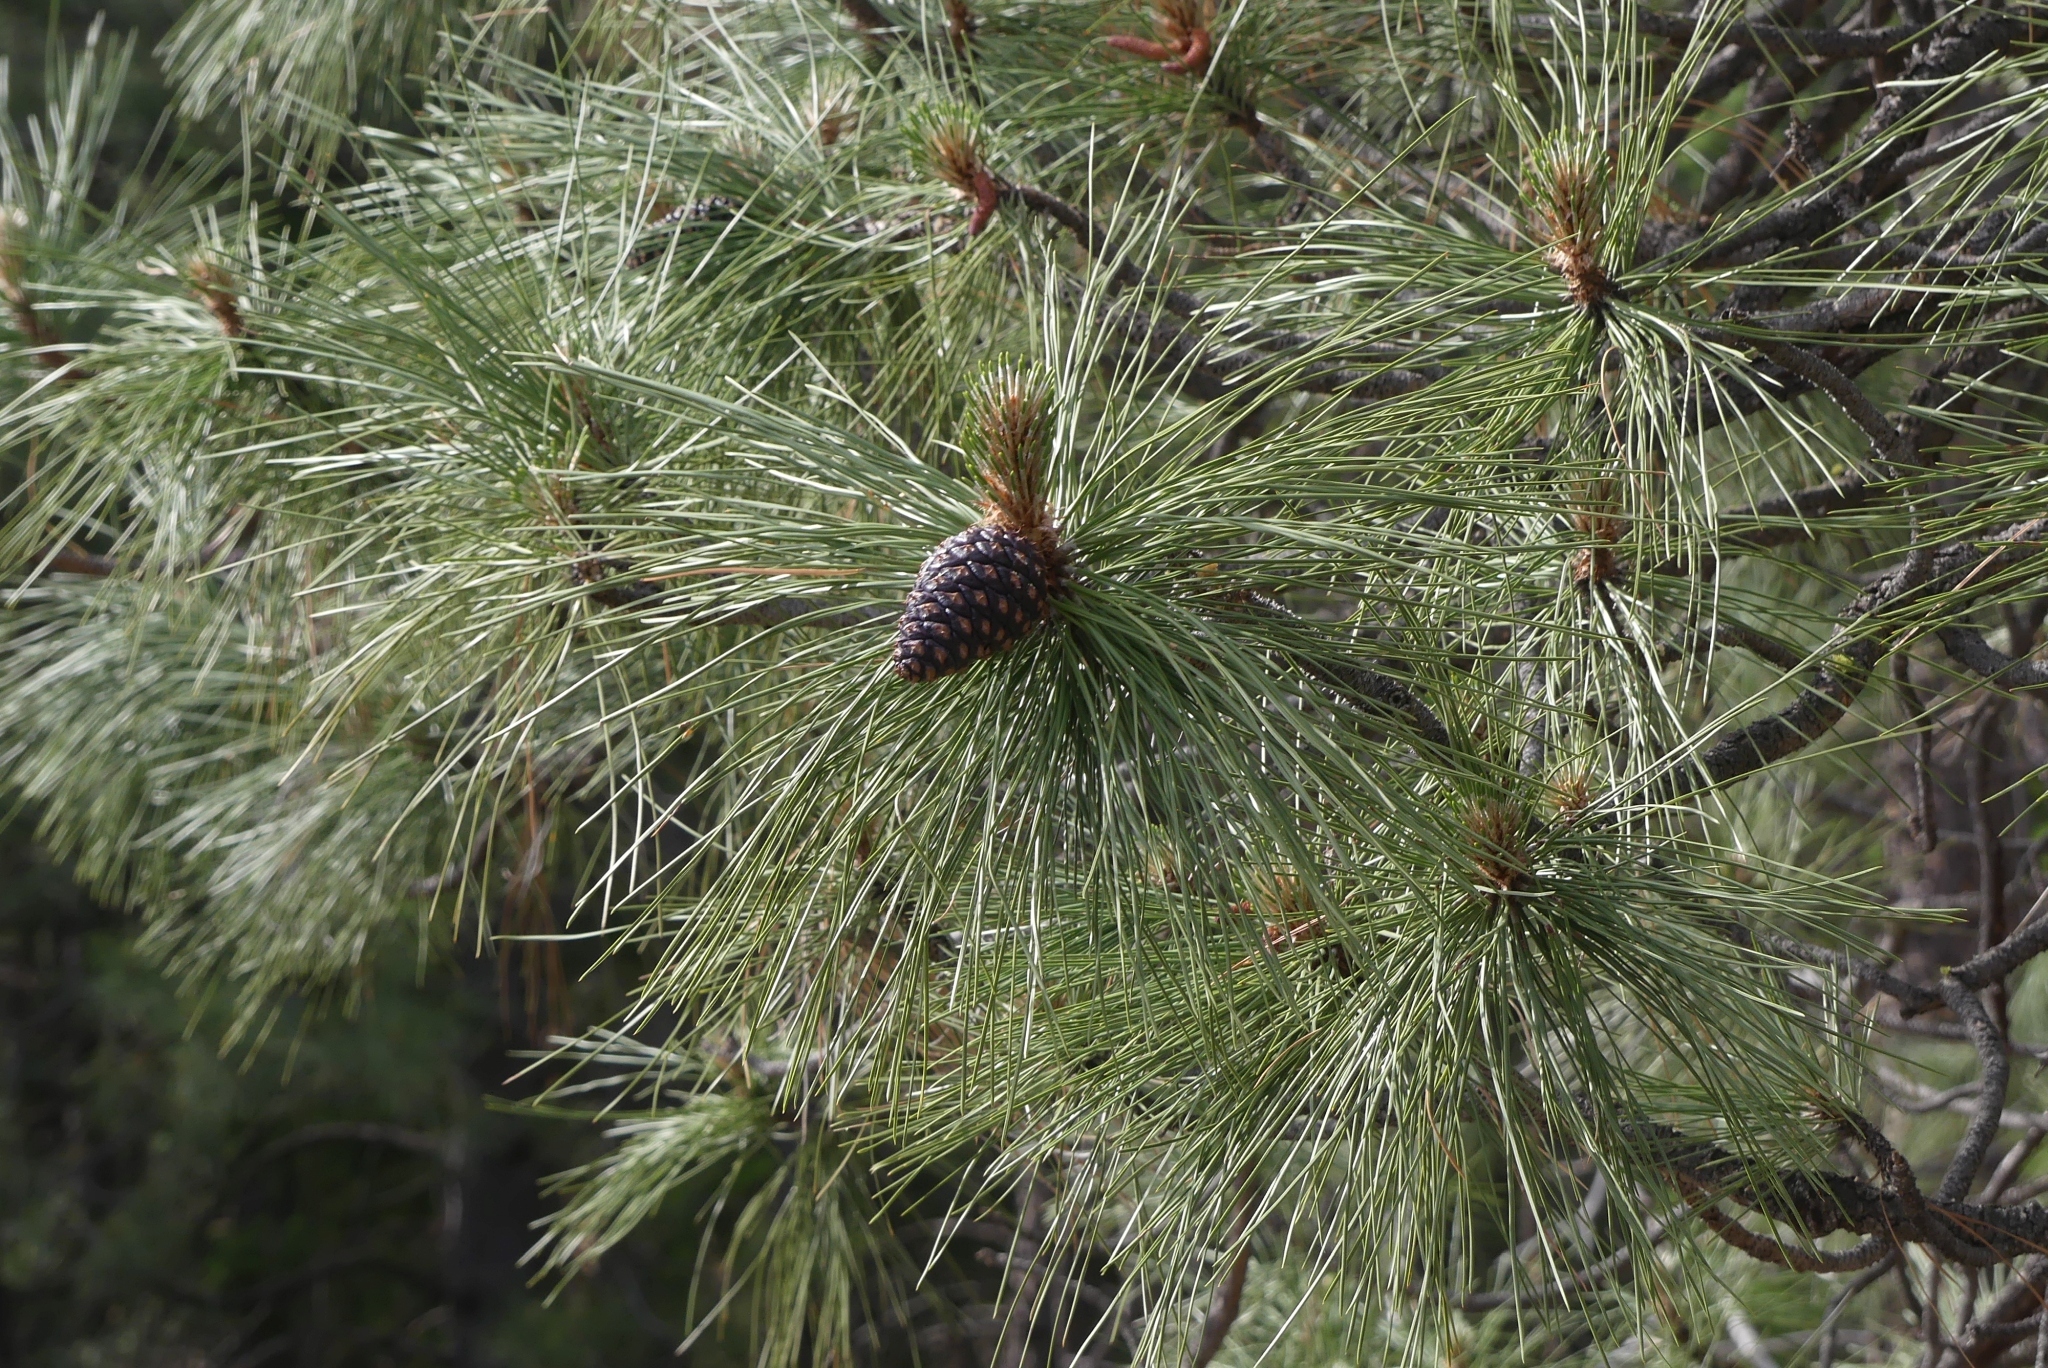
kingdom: Plantae
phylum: Tracheophyta
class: Pinopsida
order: Pinales
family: Pinaceae
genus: Pinus
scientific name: Pinus ponderosa
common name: Western yellow-pine
